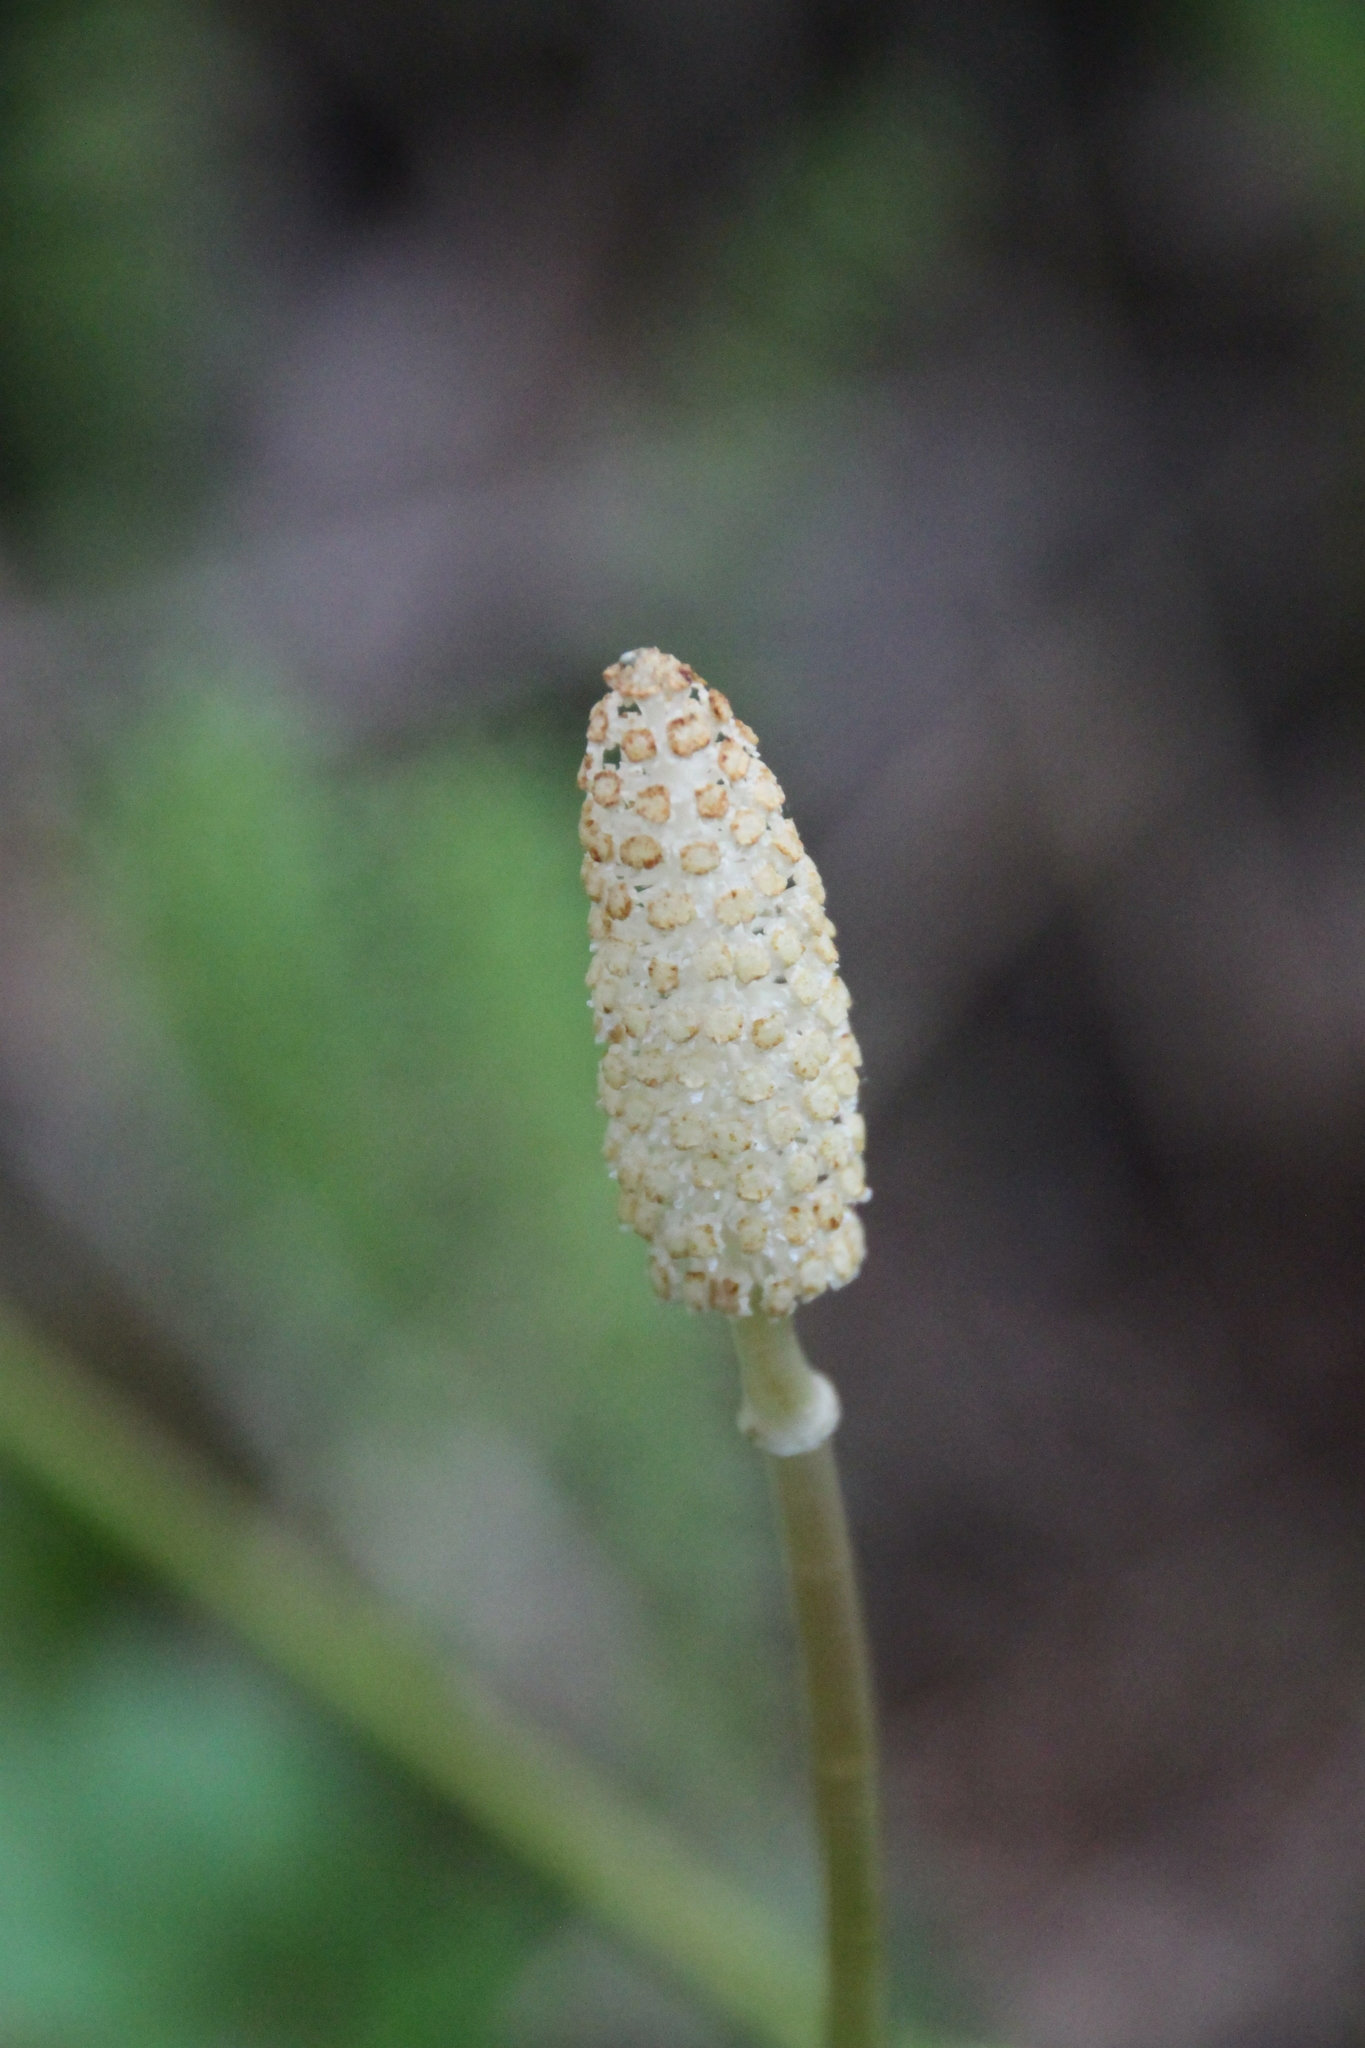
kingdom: Plantae
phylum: Tracheophyta
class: Polypodiopsida
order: Equisetales
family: Equisetaceae
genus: Equisetum
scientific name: Equisetum sylvaticum
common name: Wood horsetail
